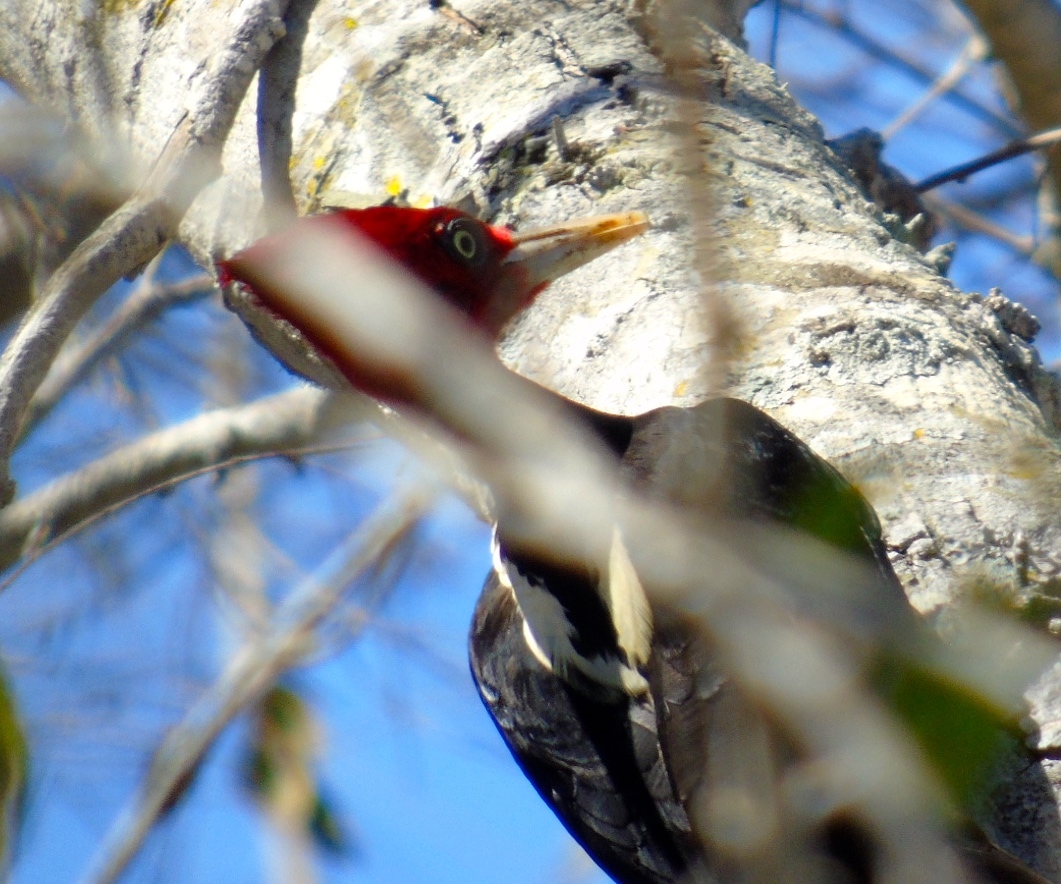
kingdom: Animalia
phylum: Chordata
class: Aves
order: Piciformes
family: Picidae
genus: Campephilus
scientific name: Campephilus guatemalensis
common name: Pale-billed woodpecker
